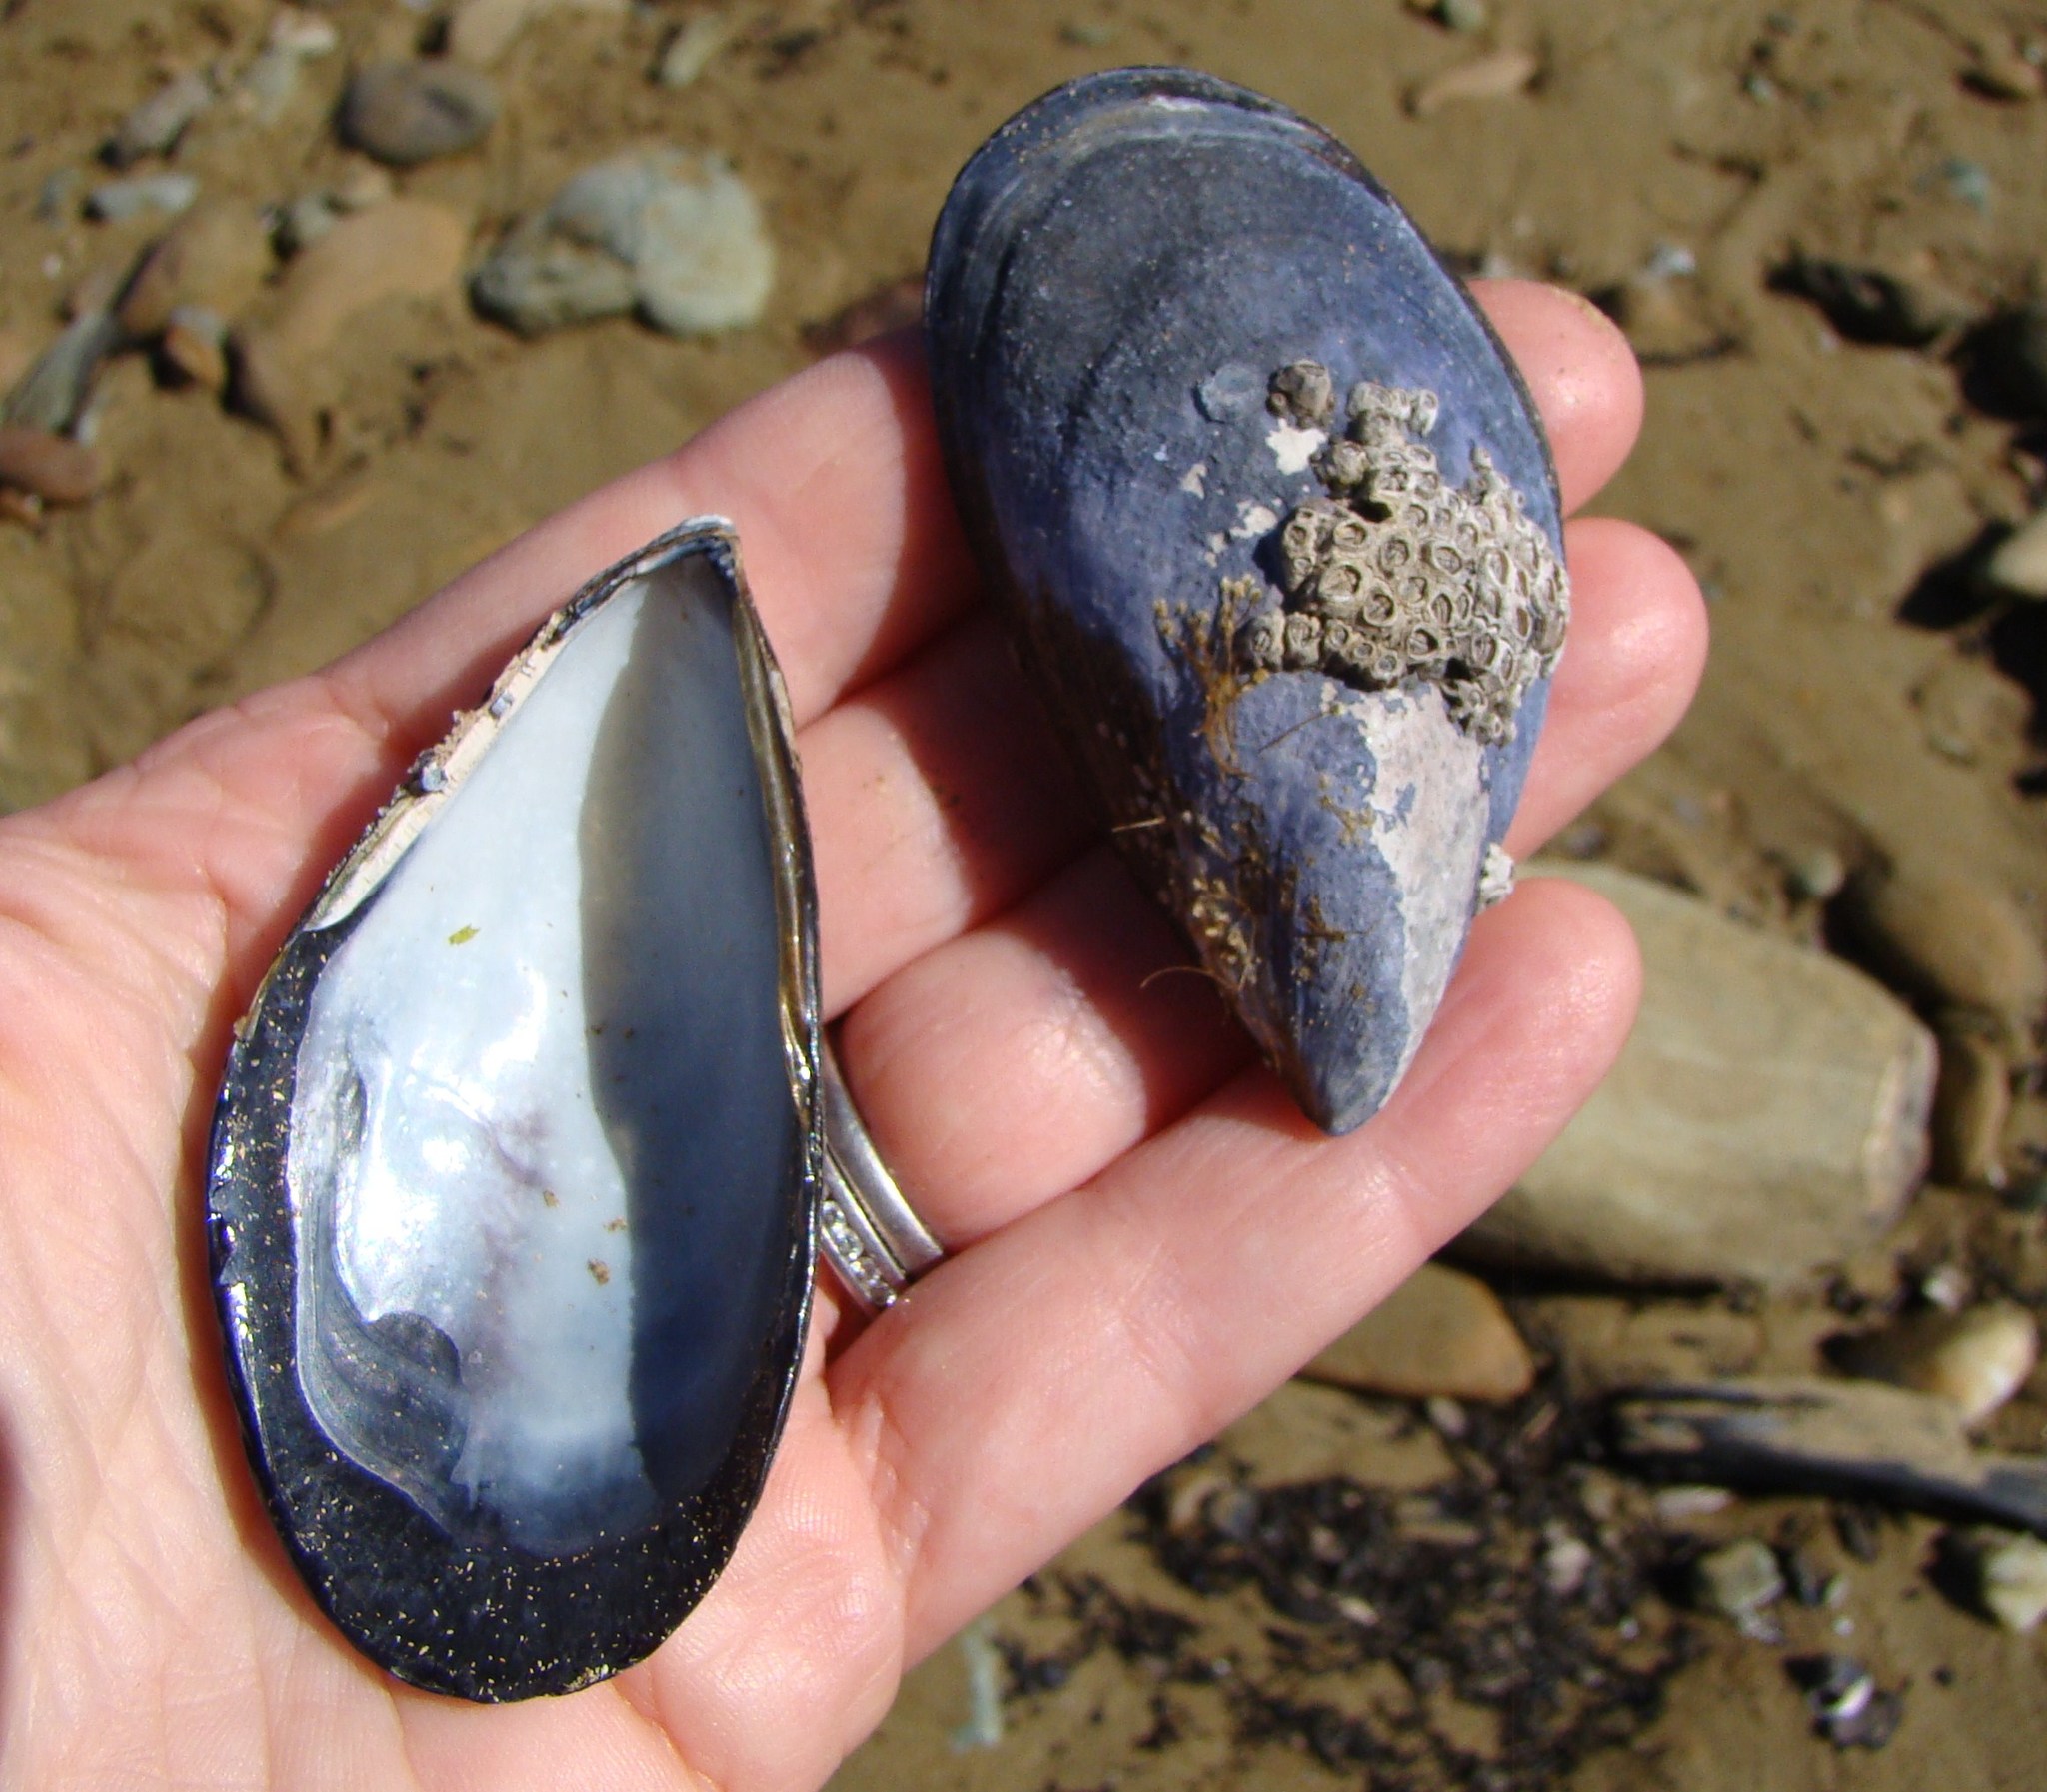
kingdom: Animalia
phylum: Mollusca
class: Bivalvia
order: Mytilida
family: Mytilidae
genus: Mytilus
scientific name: Mytilus planulatus
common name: Australian mussel
